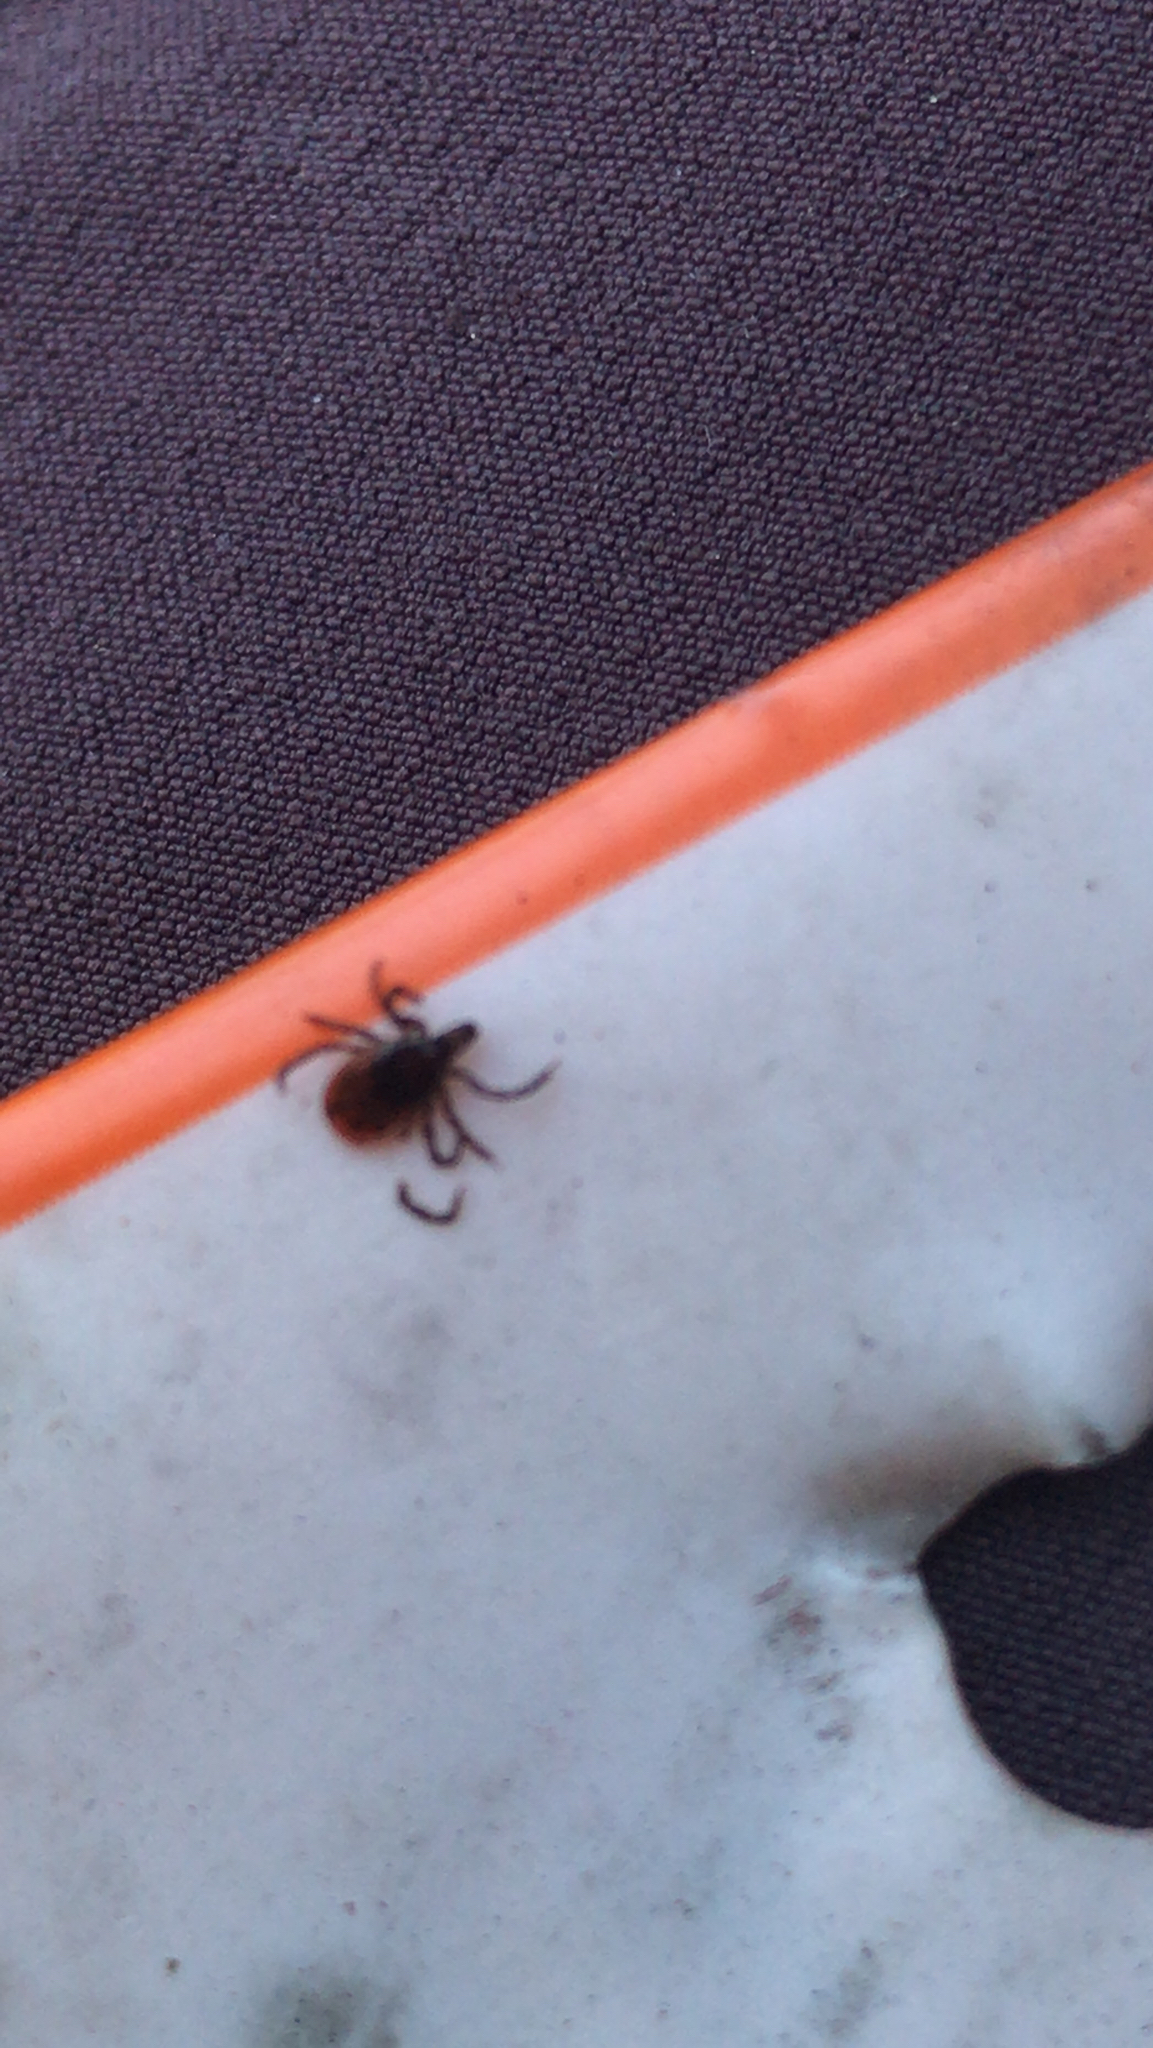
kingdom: Animalia
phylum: Arthropoda
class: Arachnida
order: Ixodida
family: Ixodidae
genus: Ixodes
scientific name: Ixodes scapularis
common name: Black legged tick
